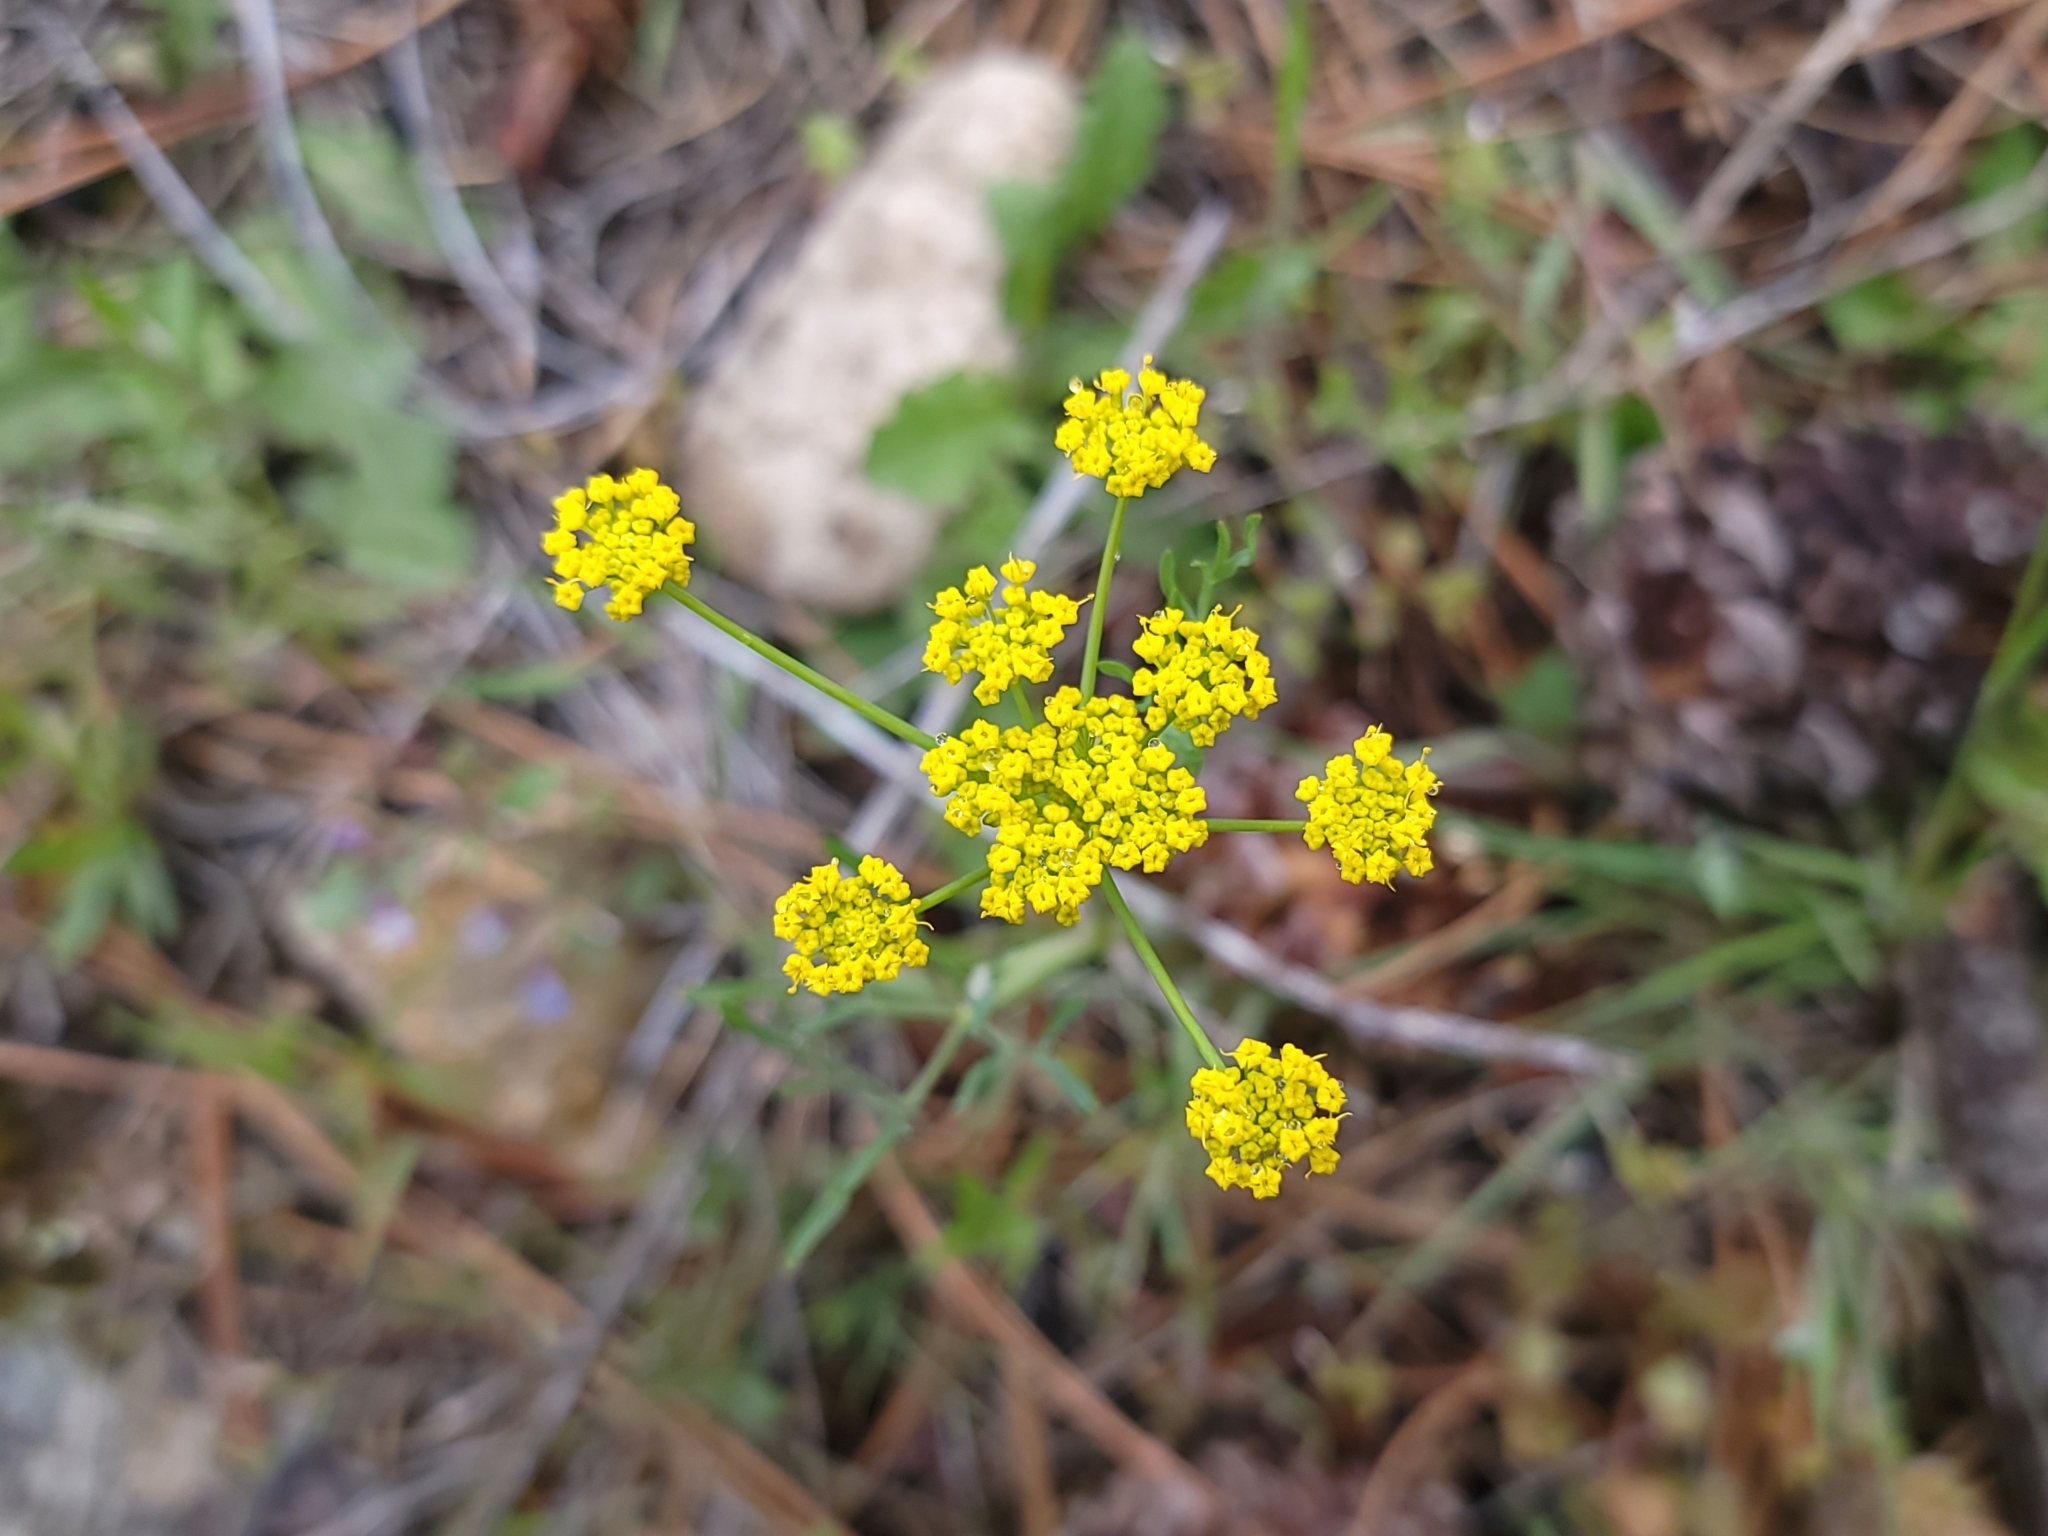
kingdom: Plantae
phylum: Tracheophyta
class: Magnoliopsida
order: Apiales
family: Apiaceae
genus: Lomatium
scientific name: Lomatium ambiguum
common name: Lacy lomatium
